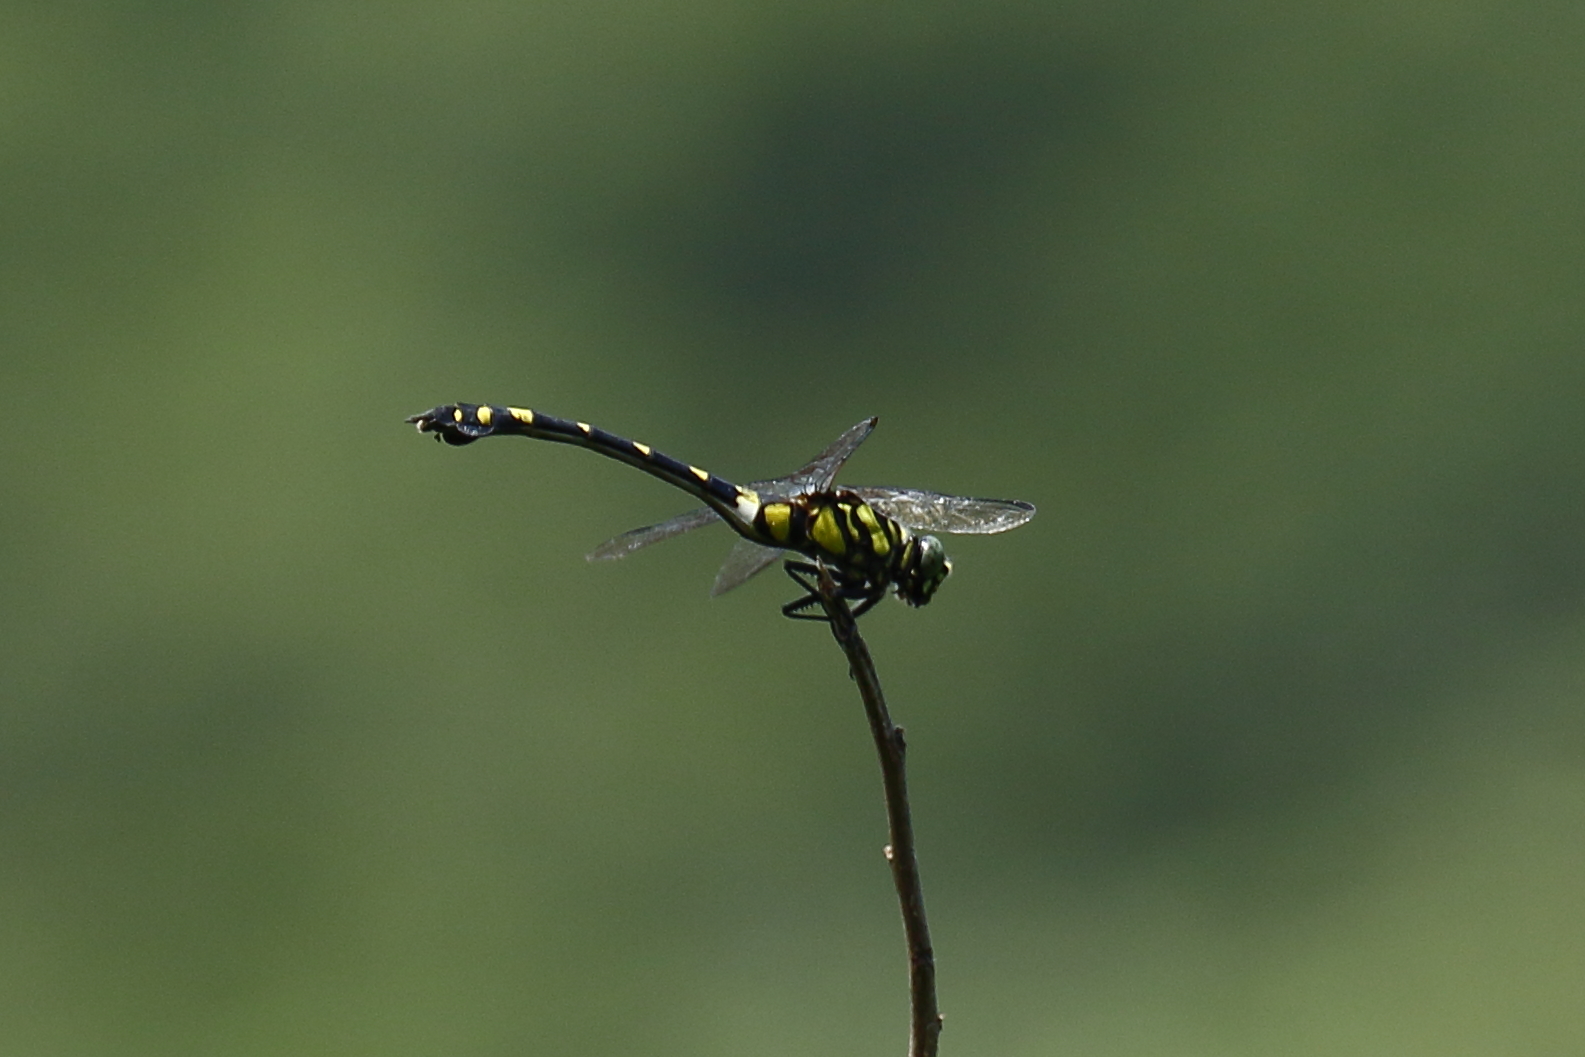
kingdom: Animalia
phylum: Arthropoda
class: Insecta
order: Odonata
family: Gomphidae
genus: Ictinogomphus
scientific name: Ictinogomphus rapax
